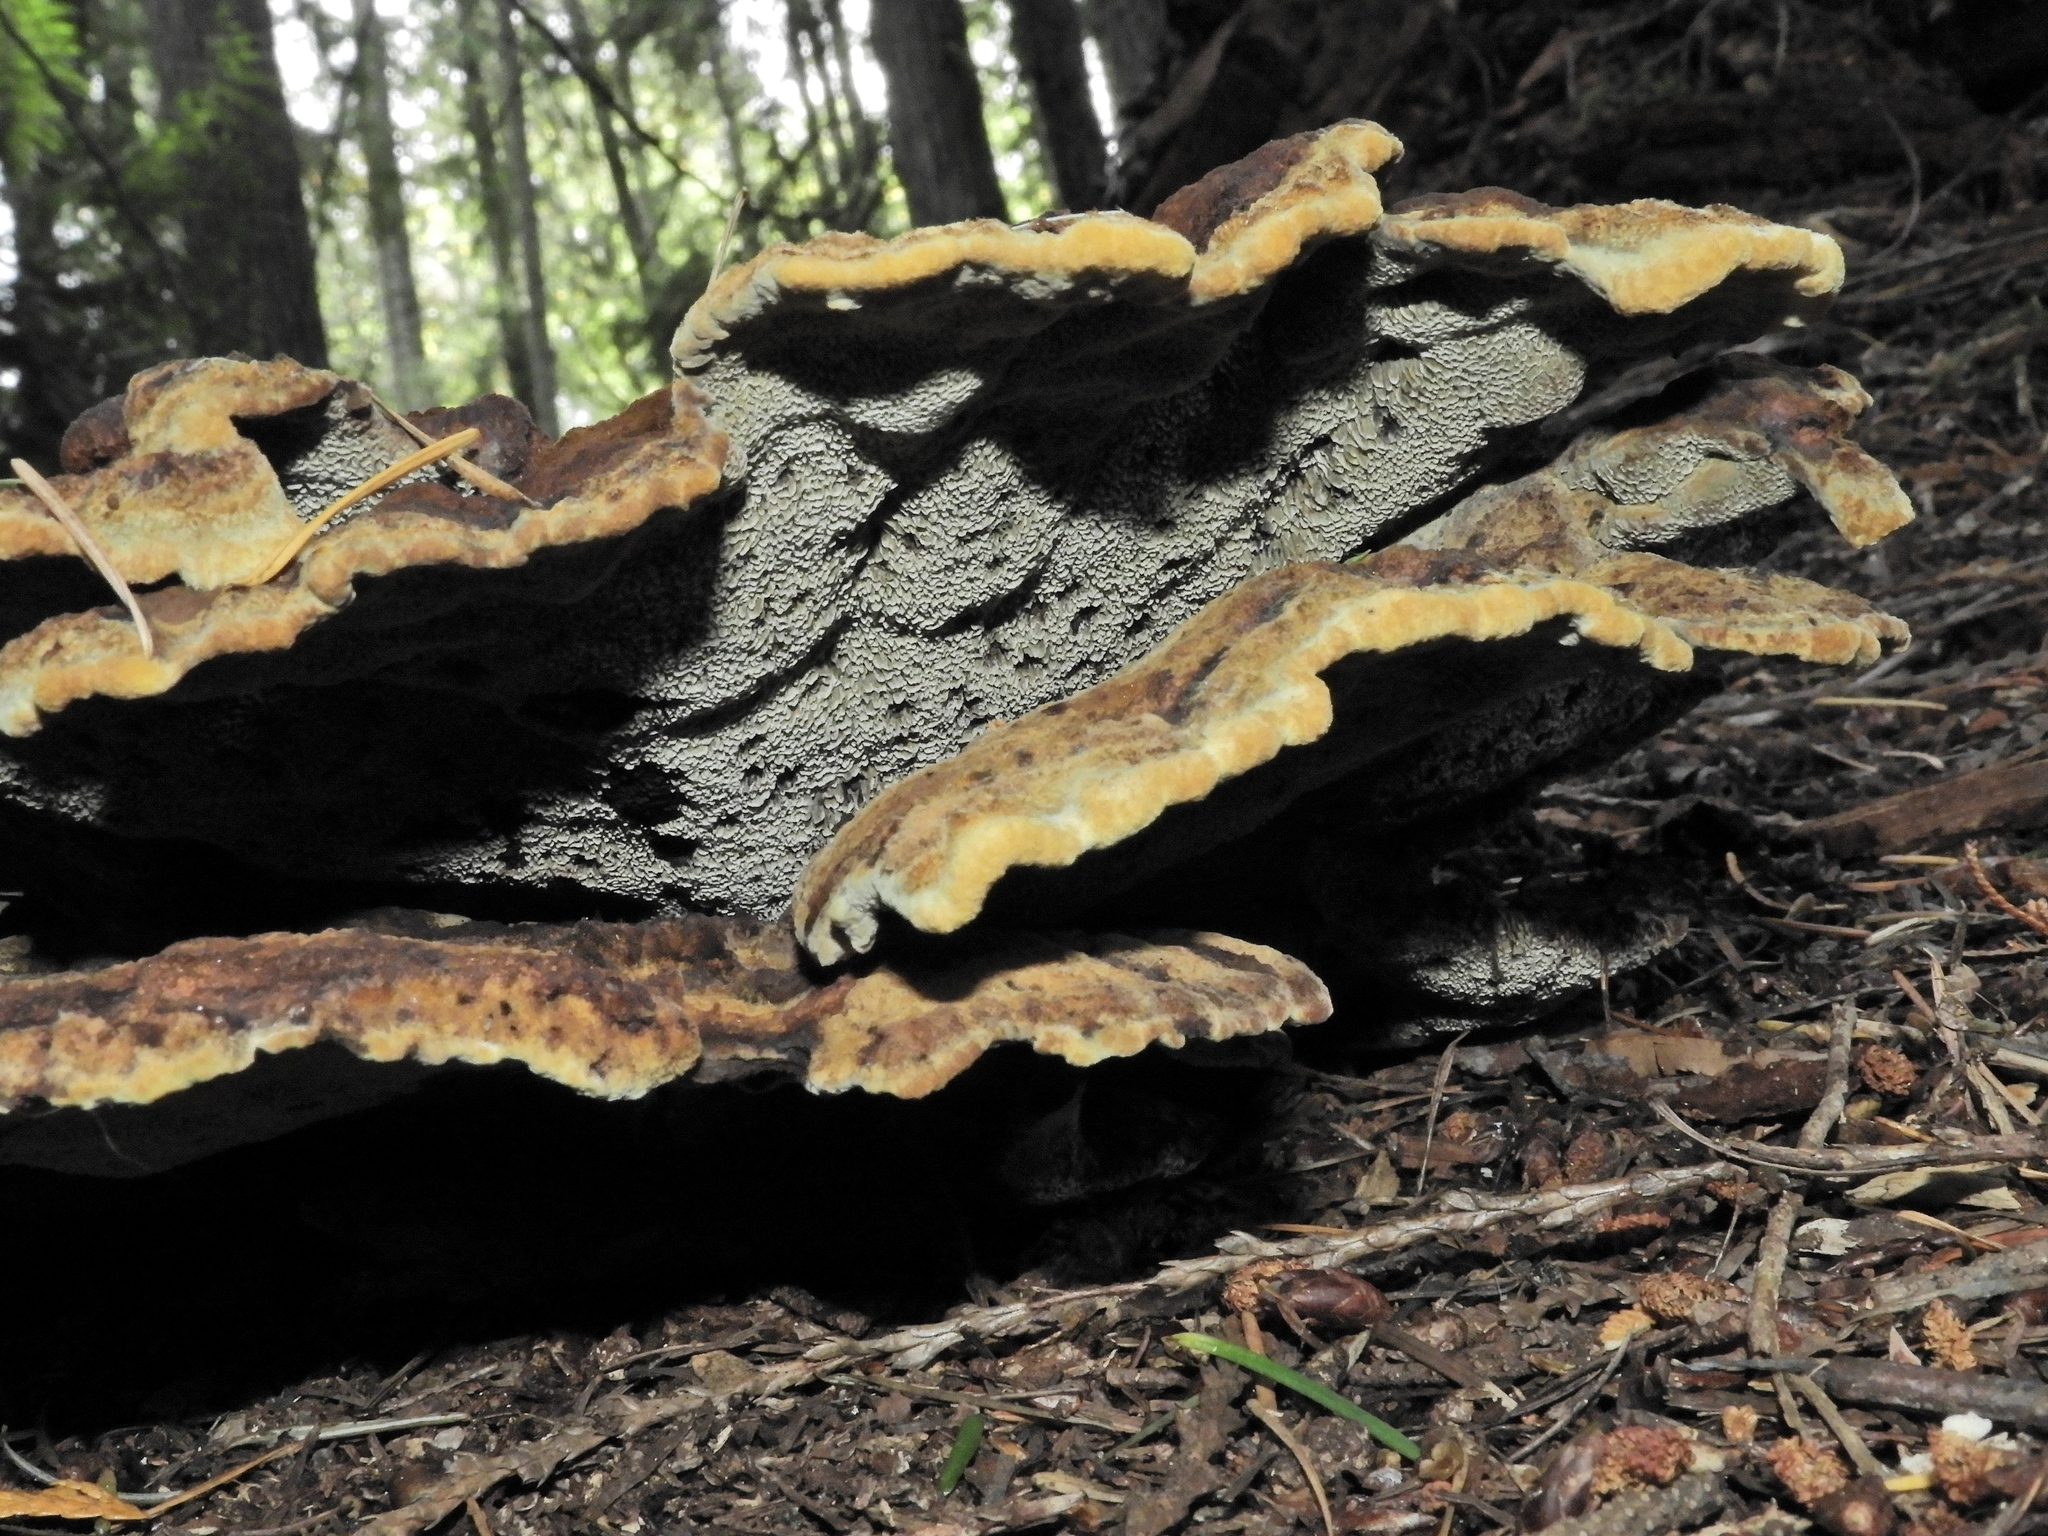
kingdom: Fungi
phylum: Basidiomycota
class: Agaricomycetes
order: Polyporales
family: Laetiporaceae
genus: Phaeolus
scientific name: Phaeolus schweinitzii
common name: Dyer's mazegill
